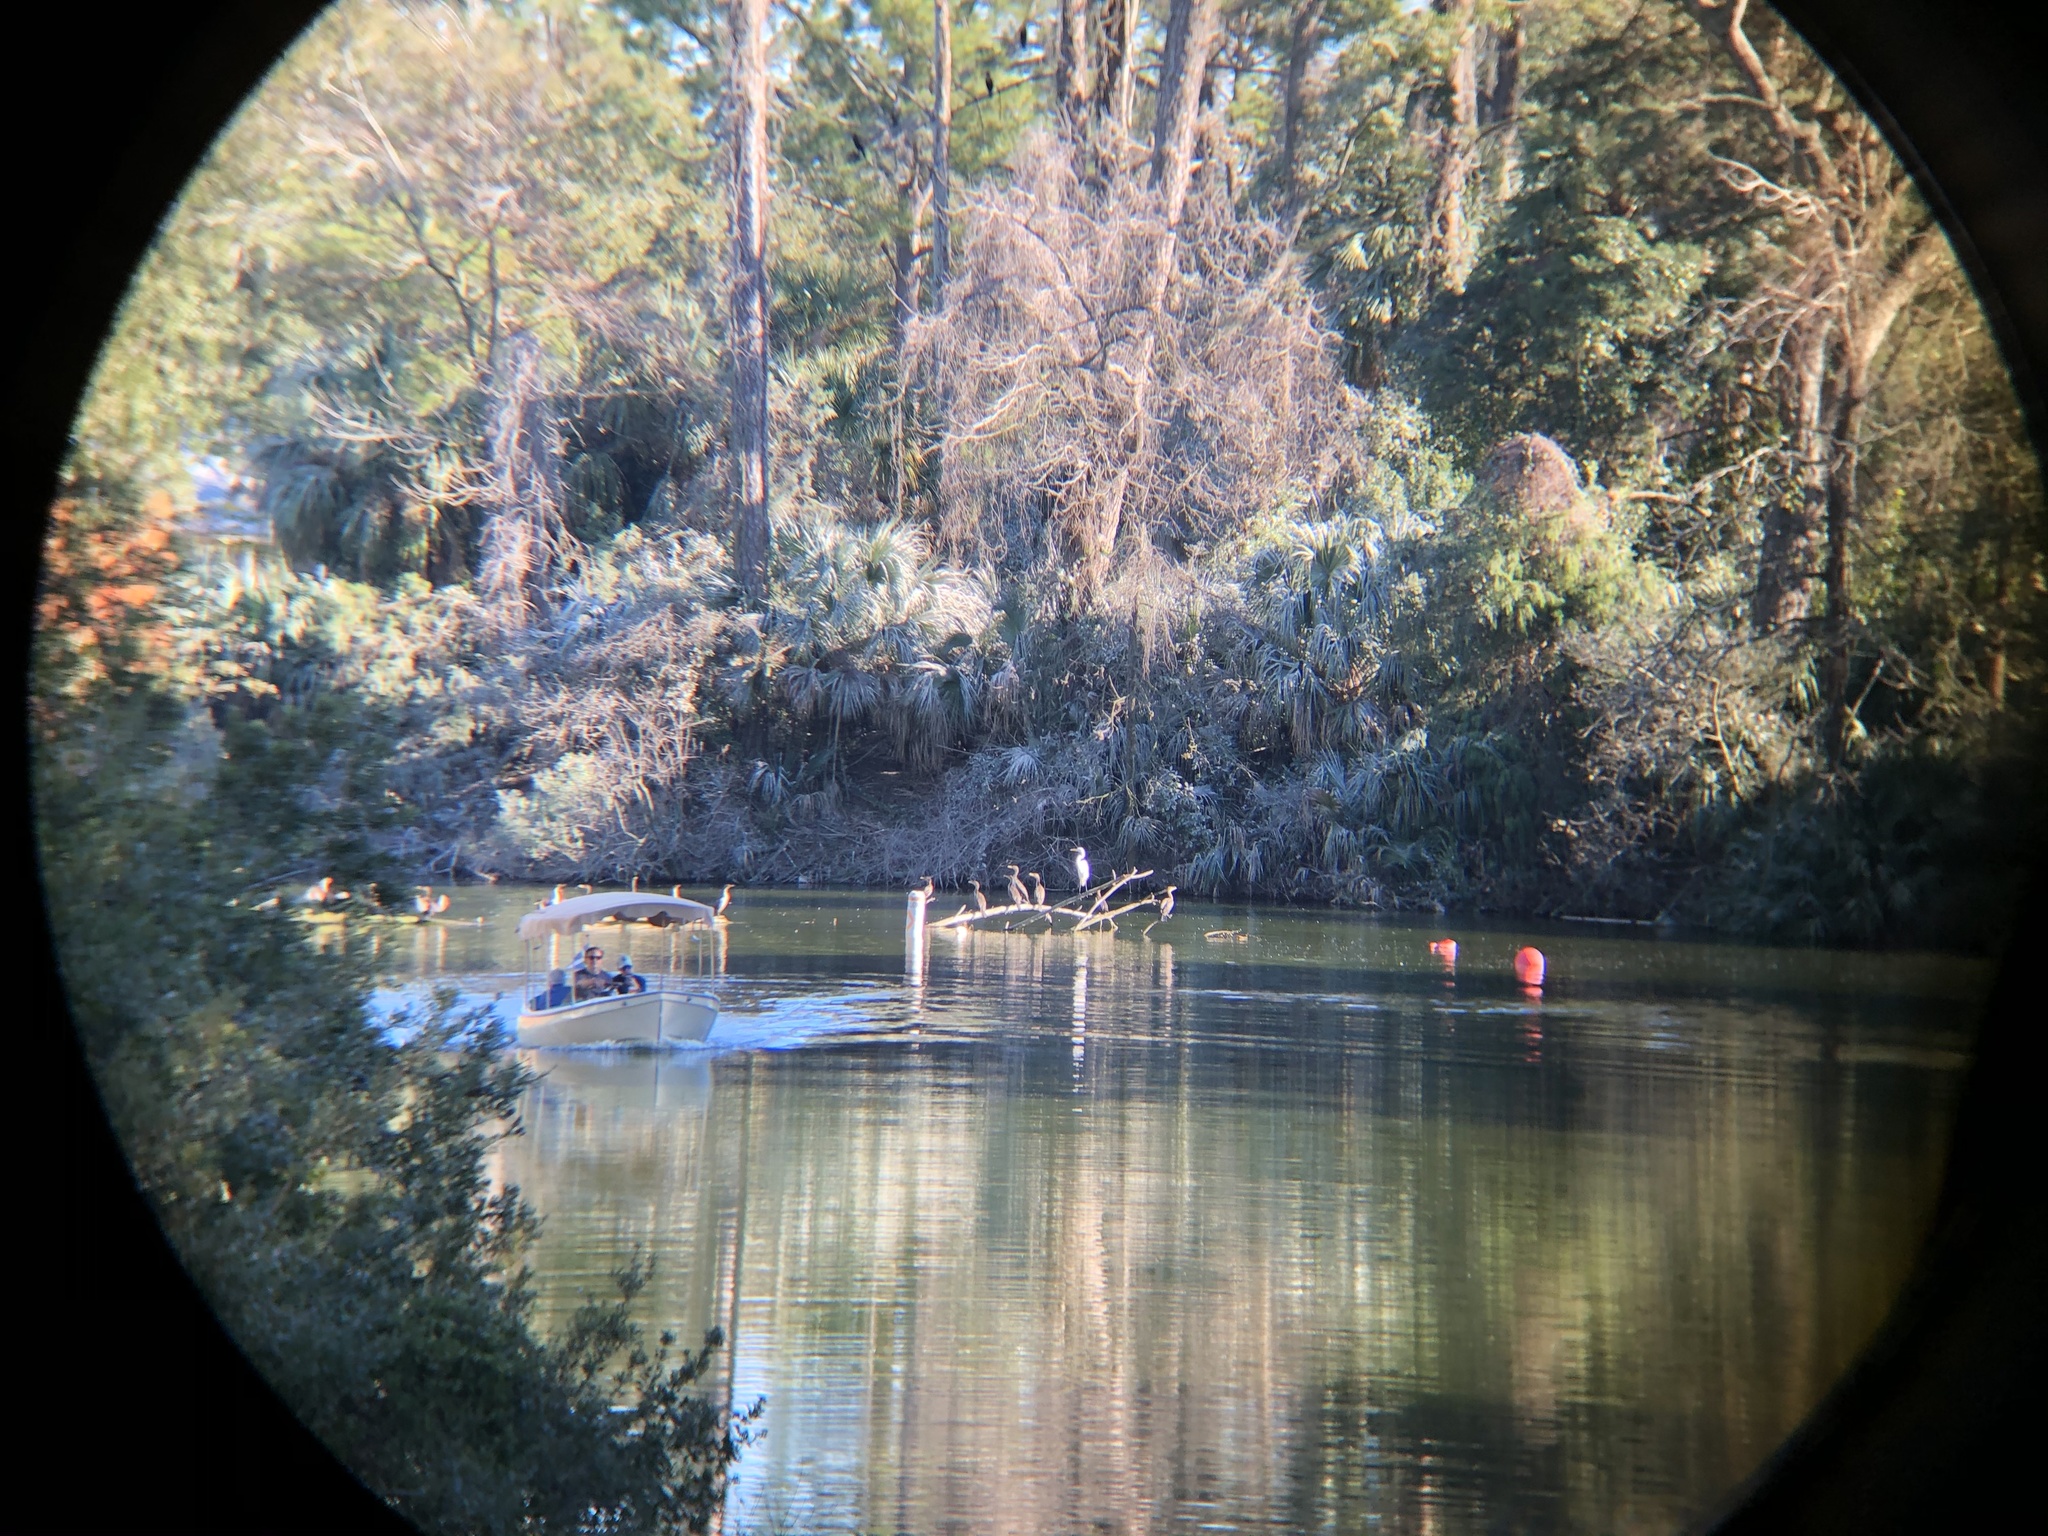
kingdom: Animalia
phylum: Chordata
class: Aves
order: Suliformes
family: Phalacrocoracidae
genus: Phalacrocorax
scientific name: Phalacrocorax auritus
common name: Double-crested cormorant
